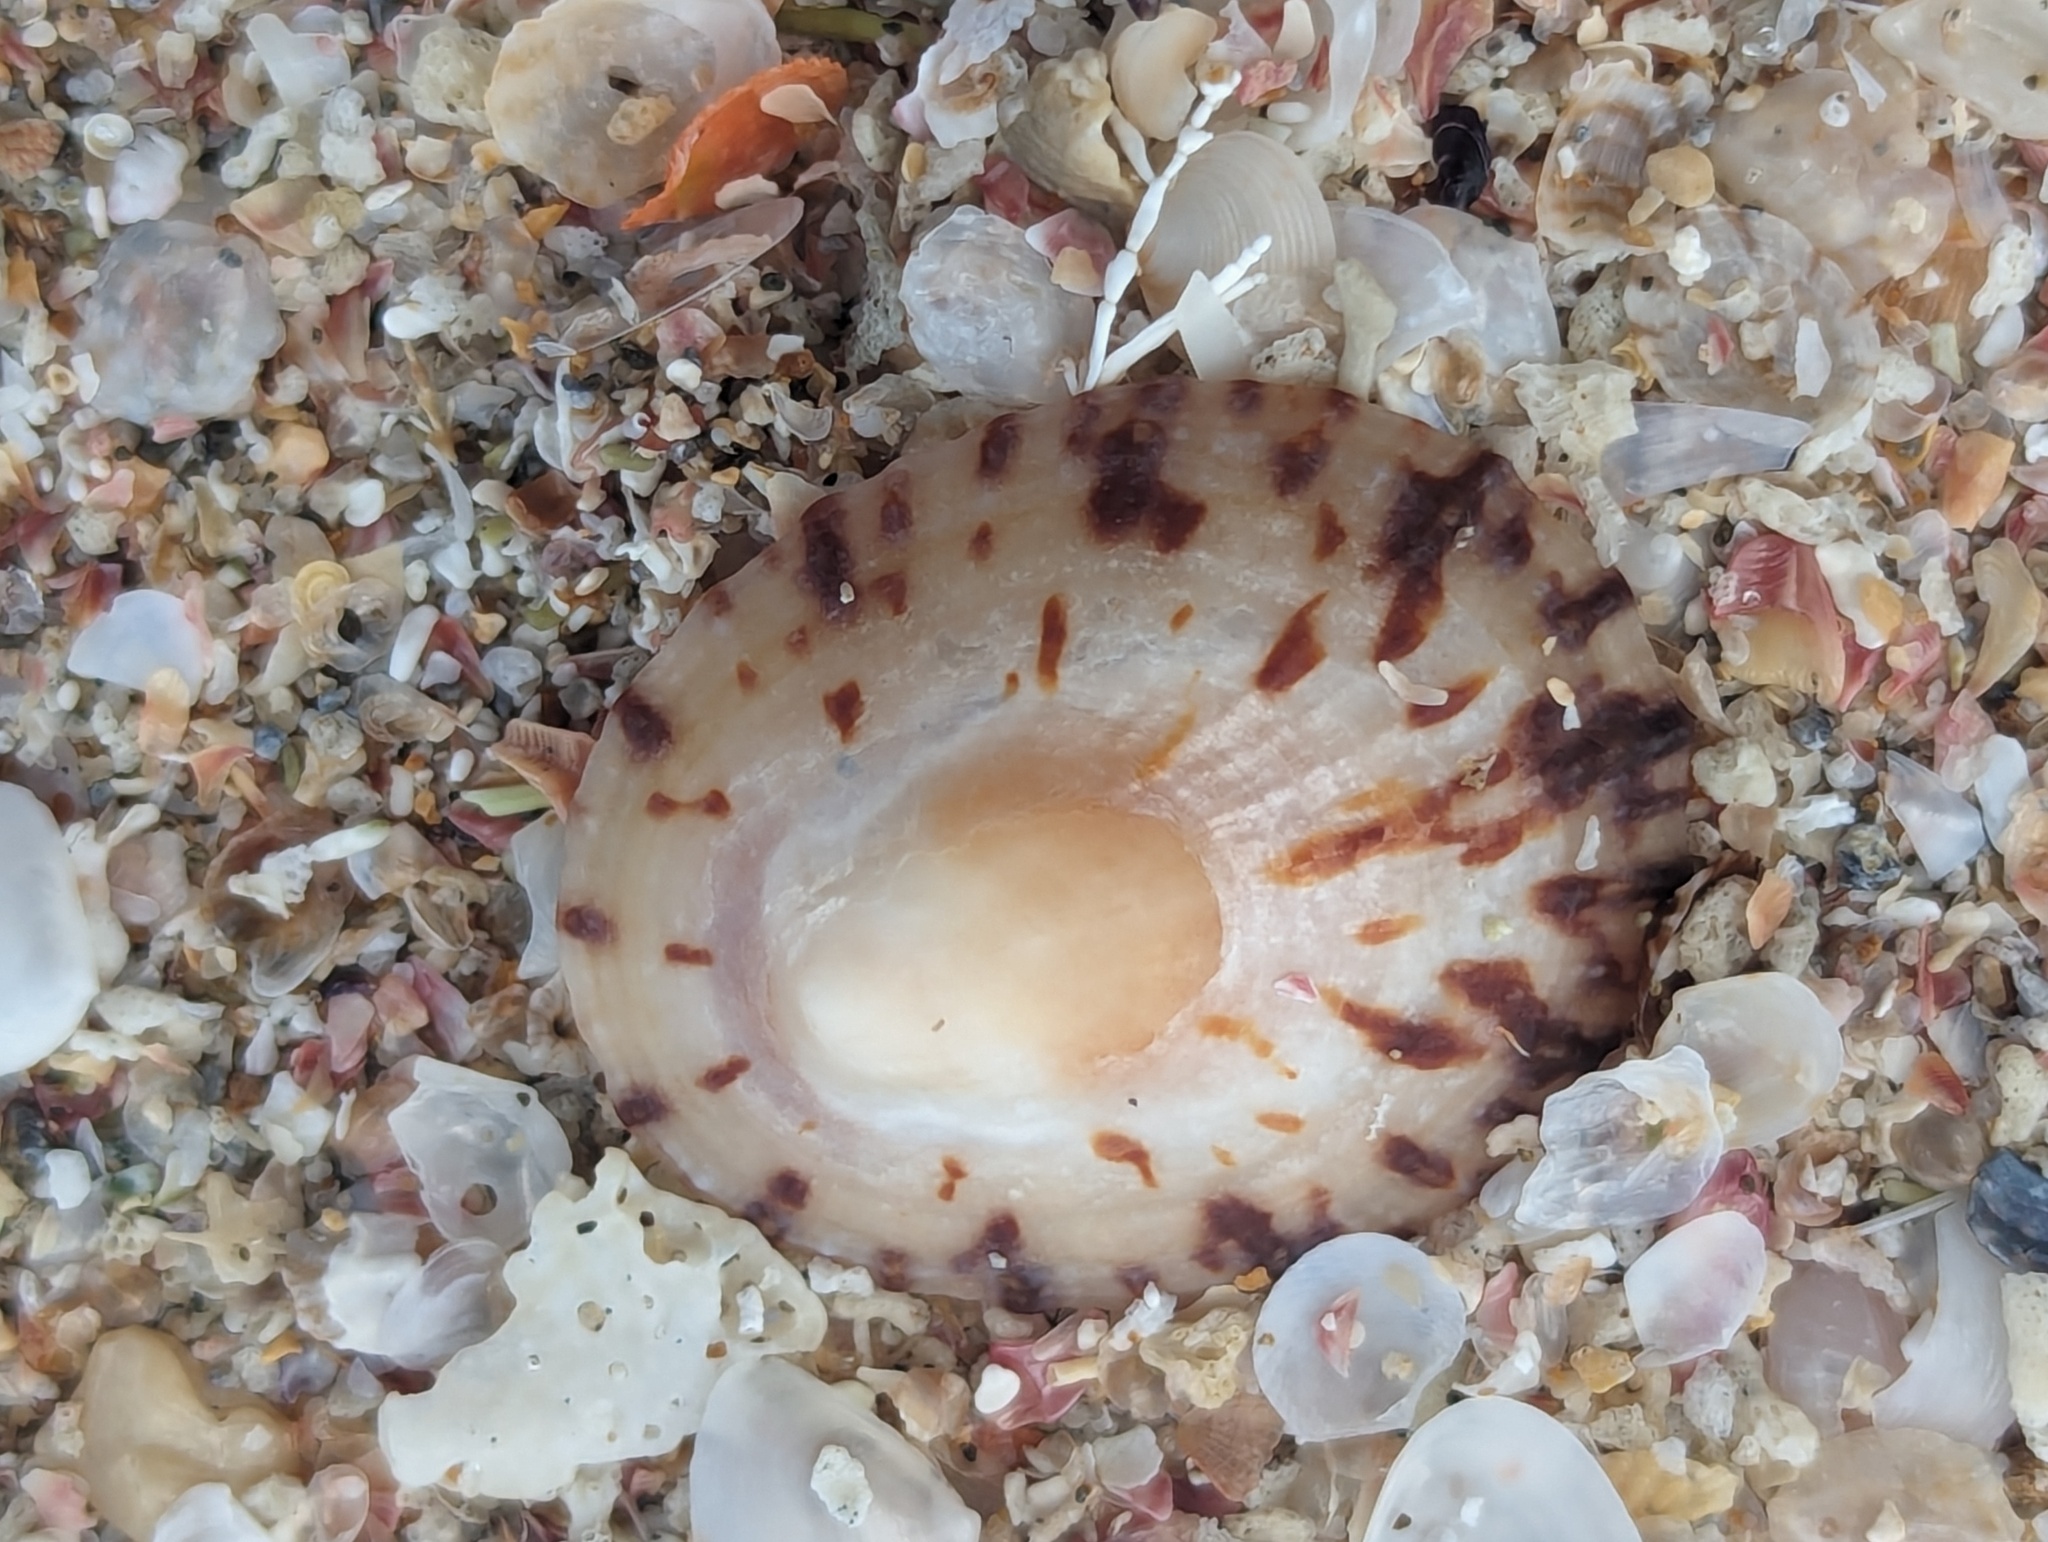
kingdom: Animalia
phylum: Mollusca
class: Gastropoda
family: Nacellidae
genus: Cellana
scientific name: Cellana radians
